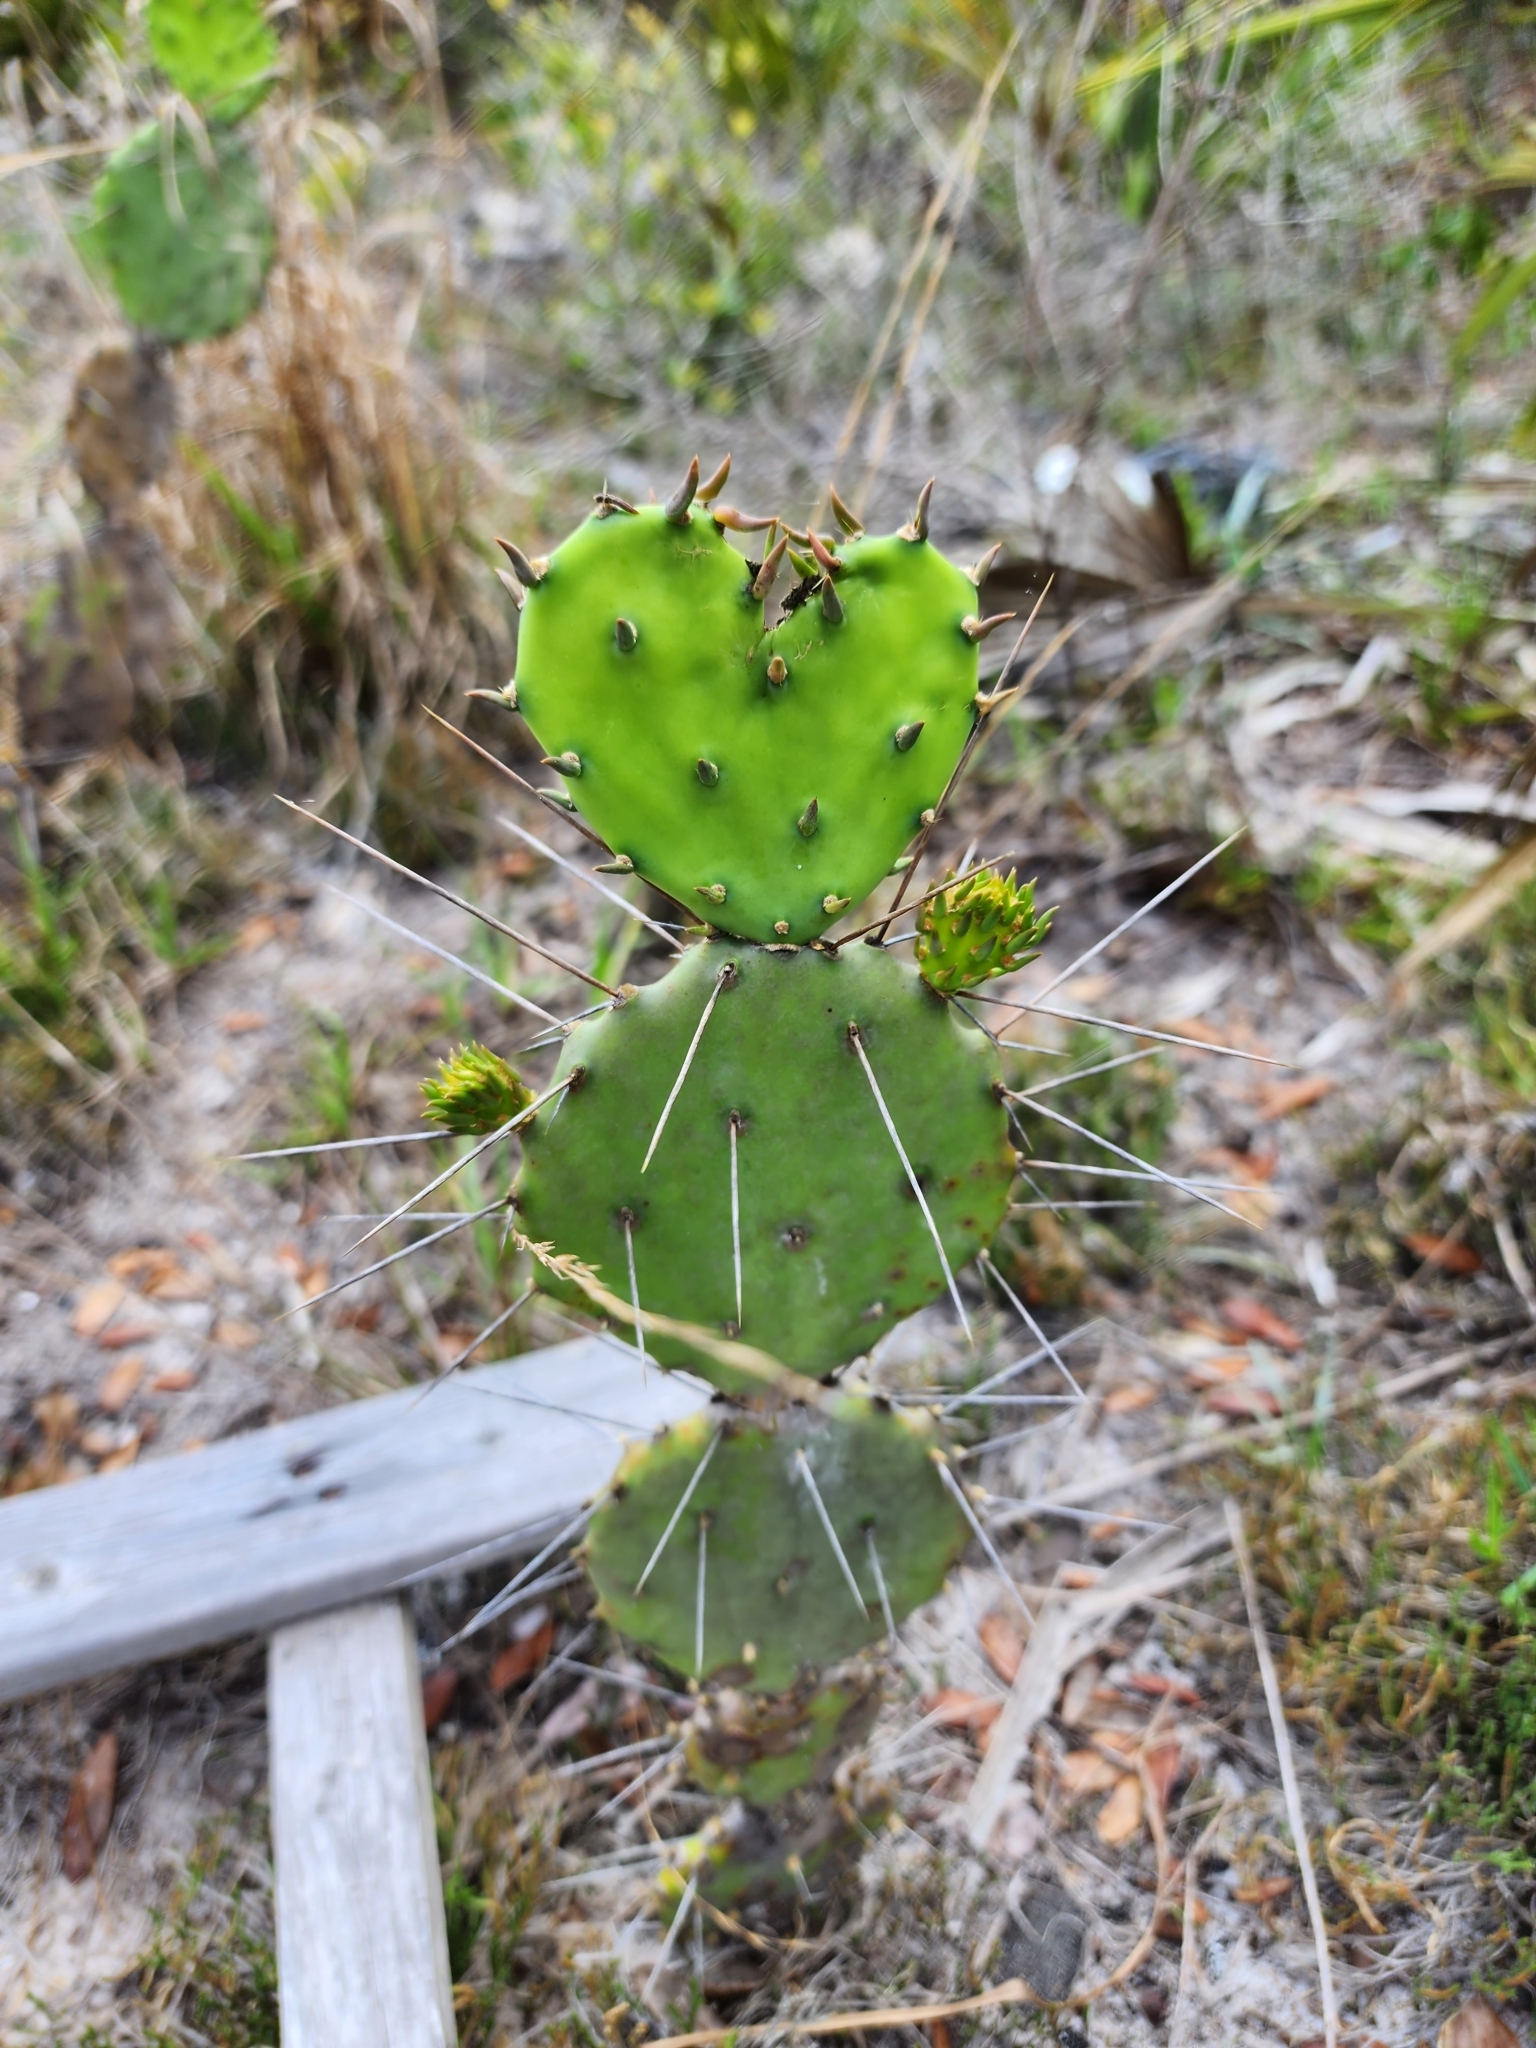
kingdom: Plantae
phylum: Tracheophyta
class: Magnoliopsida
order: Caryophyllales
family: Cactaceae
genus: Opuntia
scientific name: Opuntia austrina
